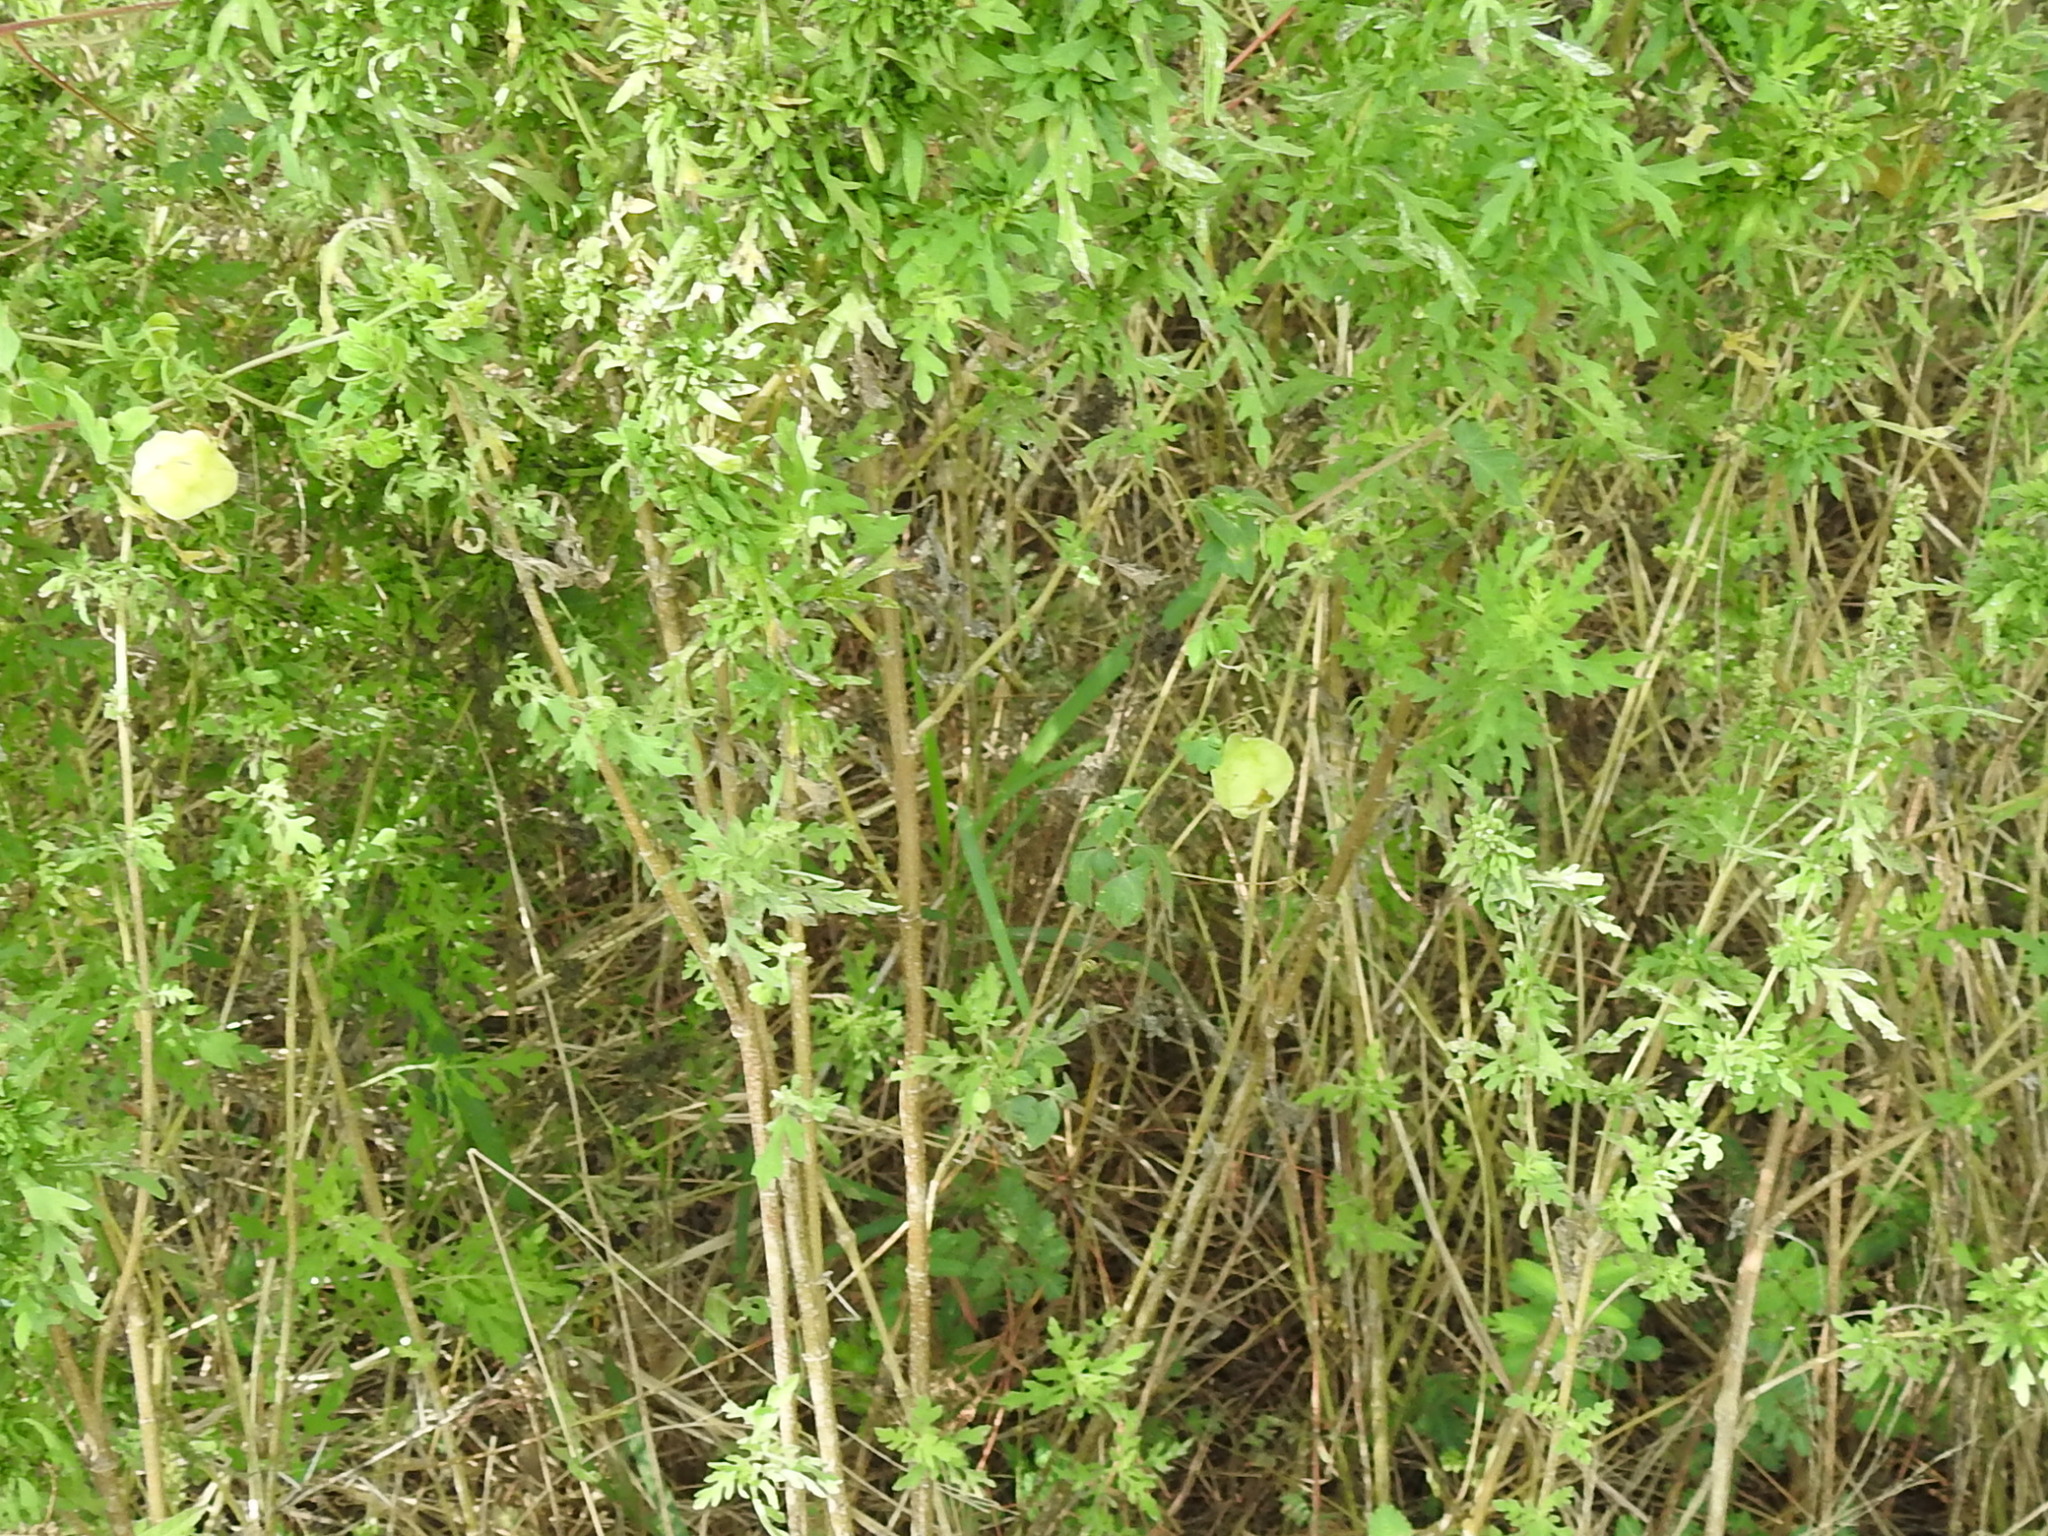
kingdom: Plantae
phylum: Tracheophyta
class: Magnoliopsida
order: Sapindales
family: Sapindaceae
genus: Cardiospermum
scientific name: Cardiospermum halicacabum
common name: Balloon vine
